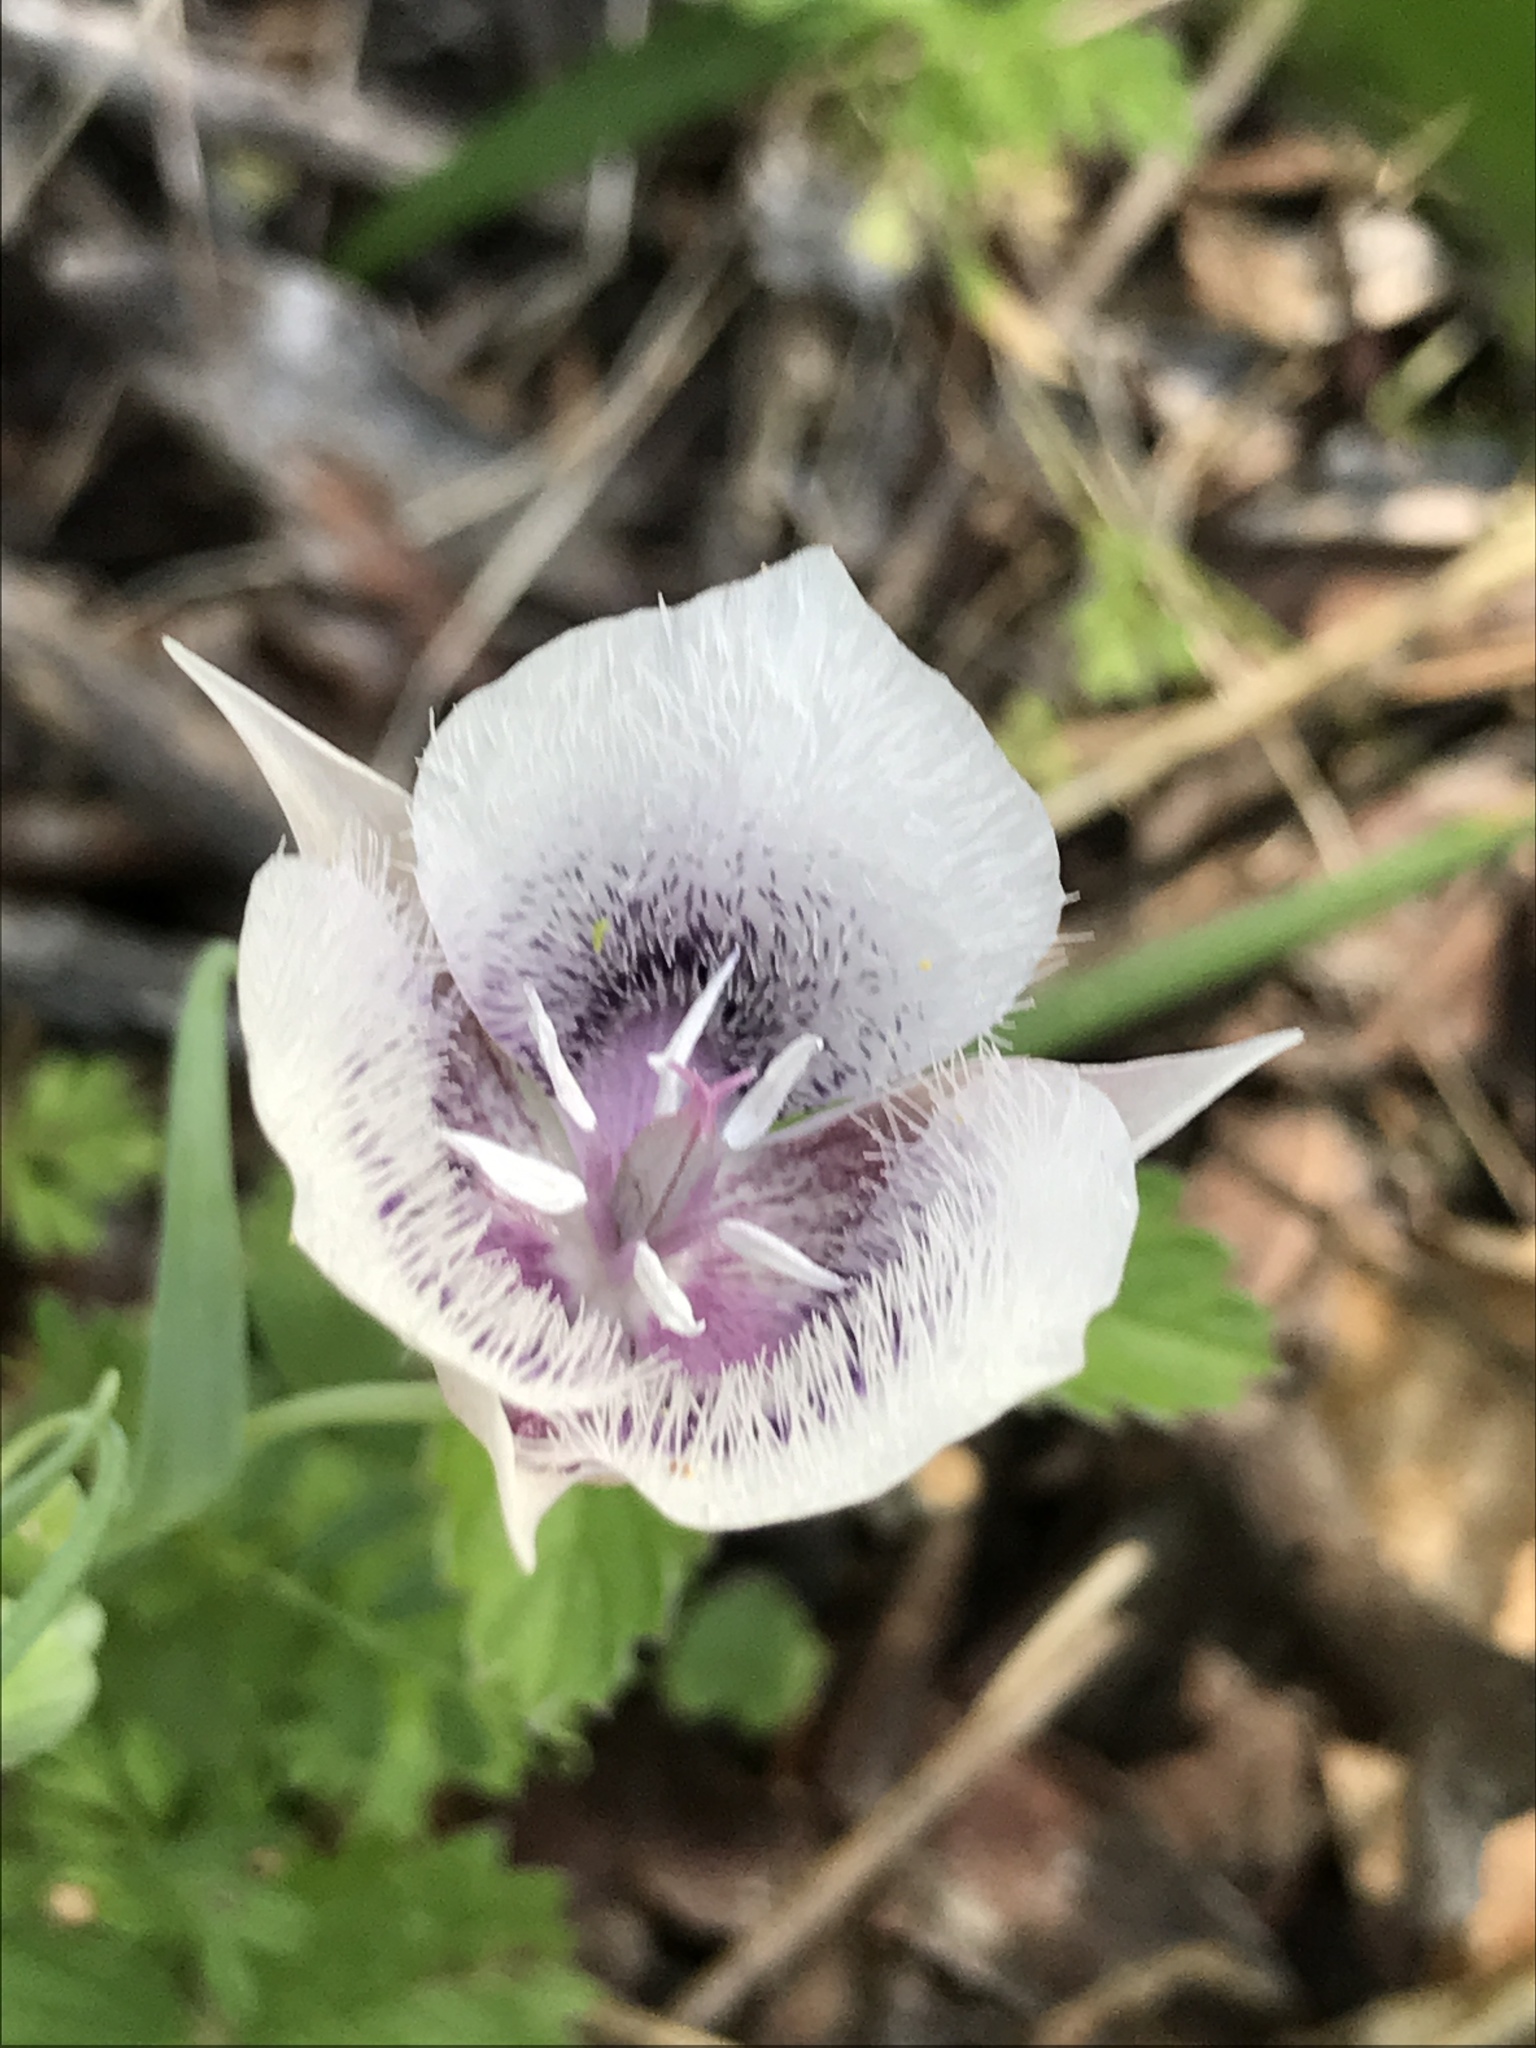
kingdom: Plantae
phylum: Tracheophyta
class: Liliopsida
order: Liliales
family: Liliaceae
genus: Calochortus
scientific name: Calochortus tolmiei
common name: Pussy-ears
